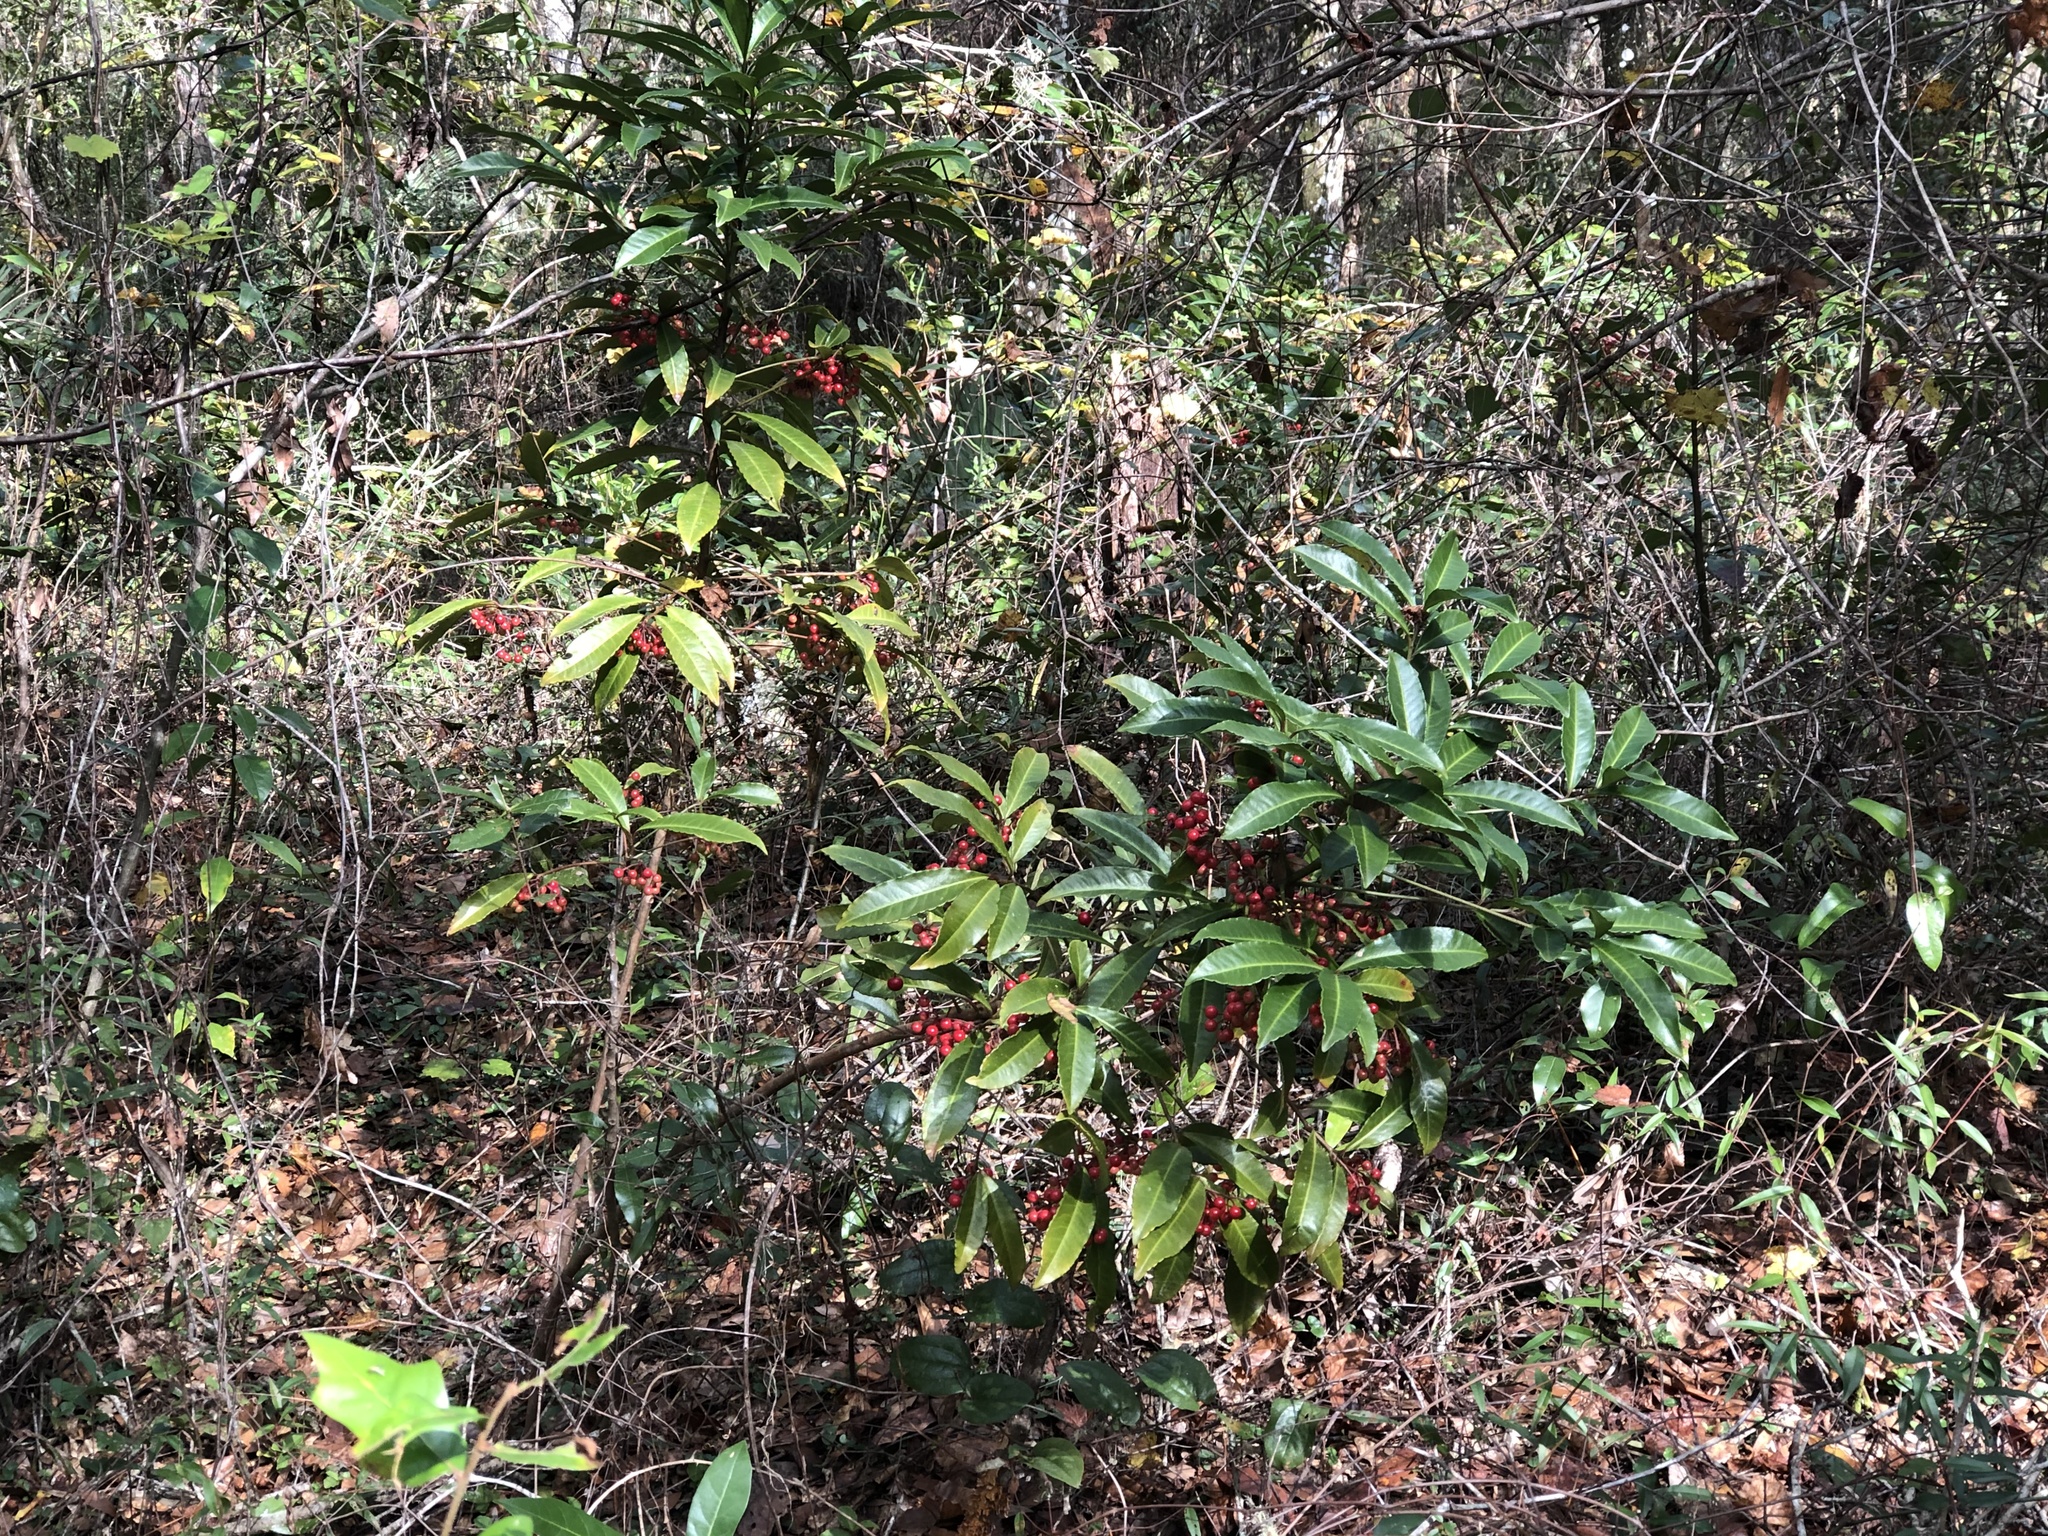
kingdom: Plantae
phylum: Tracheophyta
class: Magnoliopsida
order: Ericales
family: Primulaceae
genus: Ardisia
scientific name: Ardisia crenata
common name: Hen's eyes
